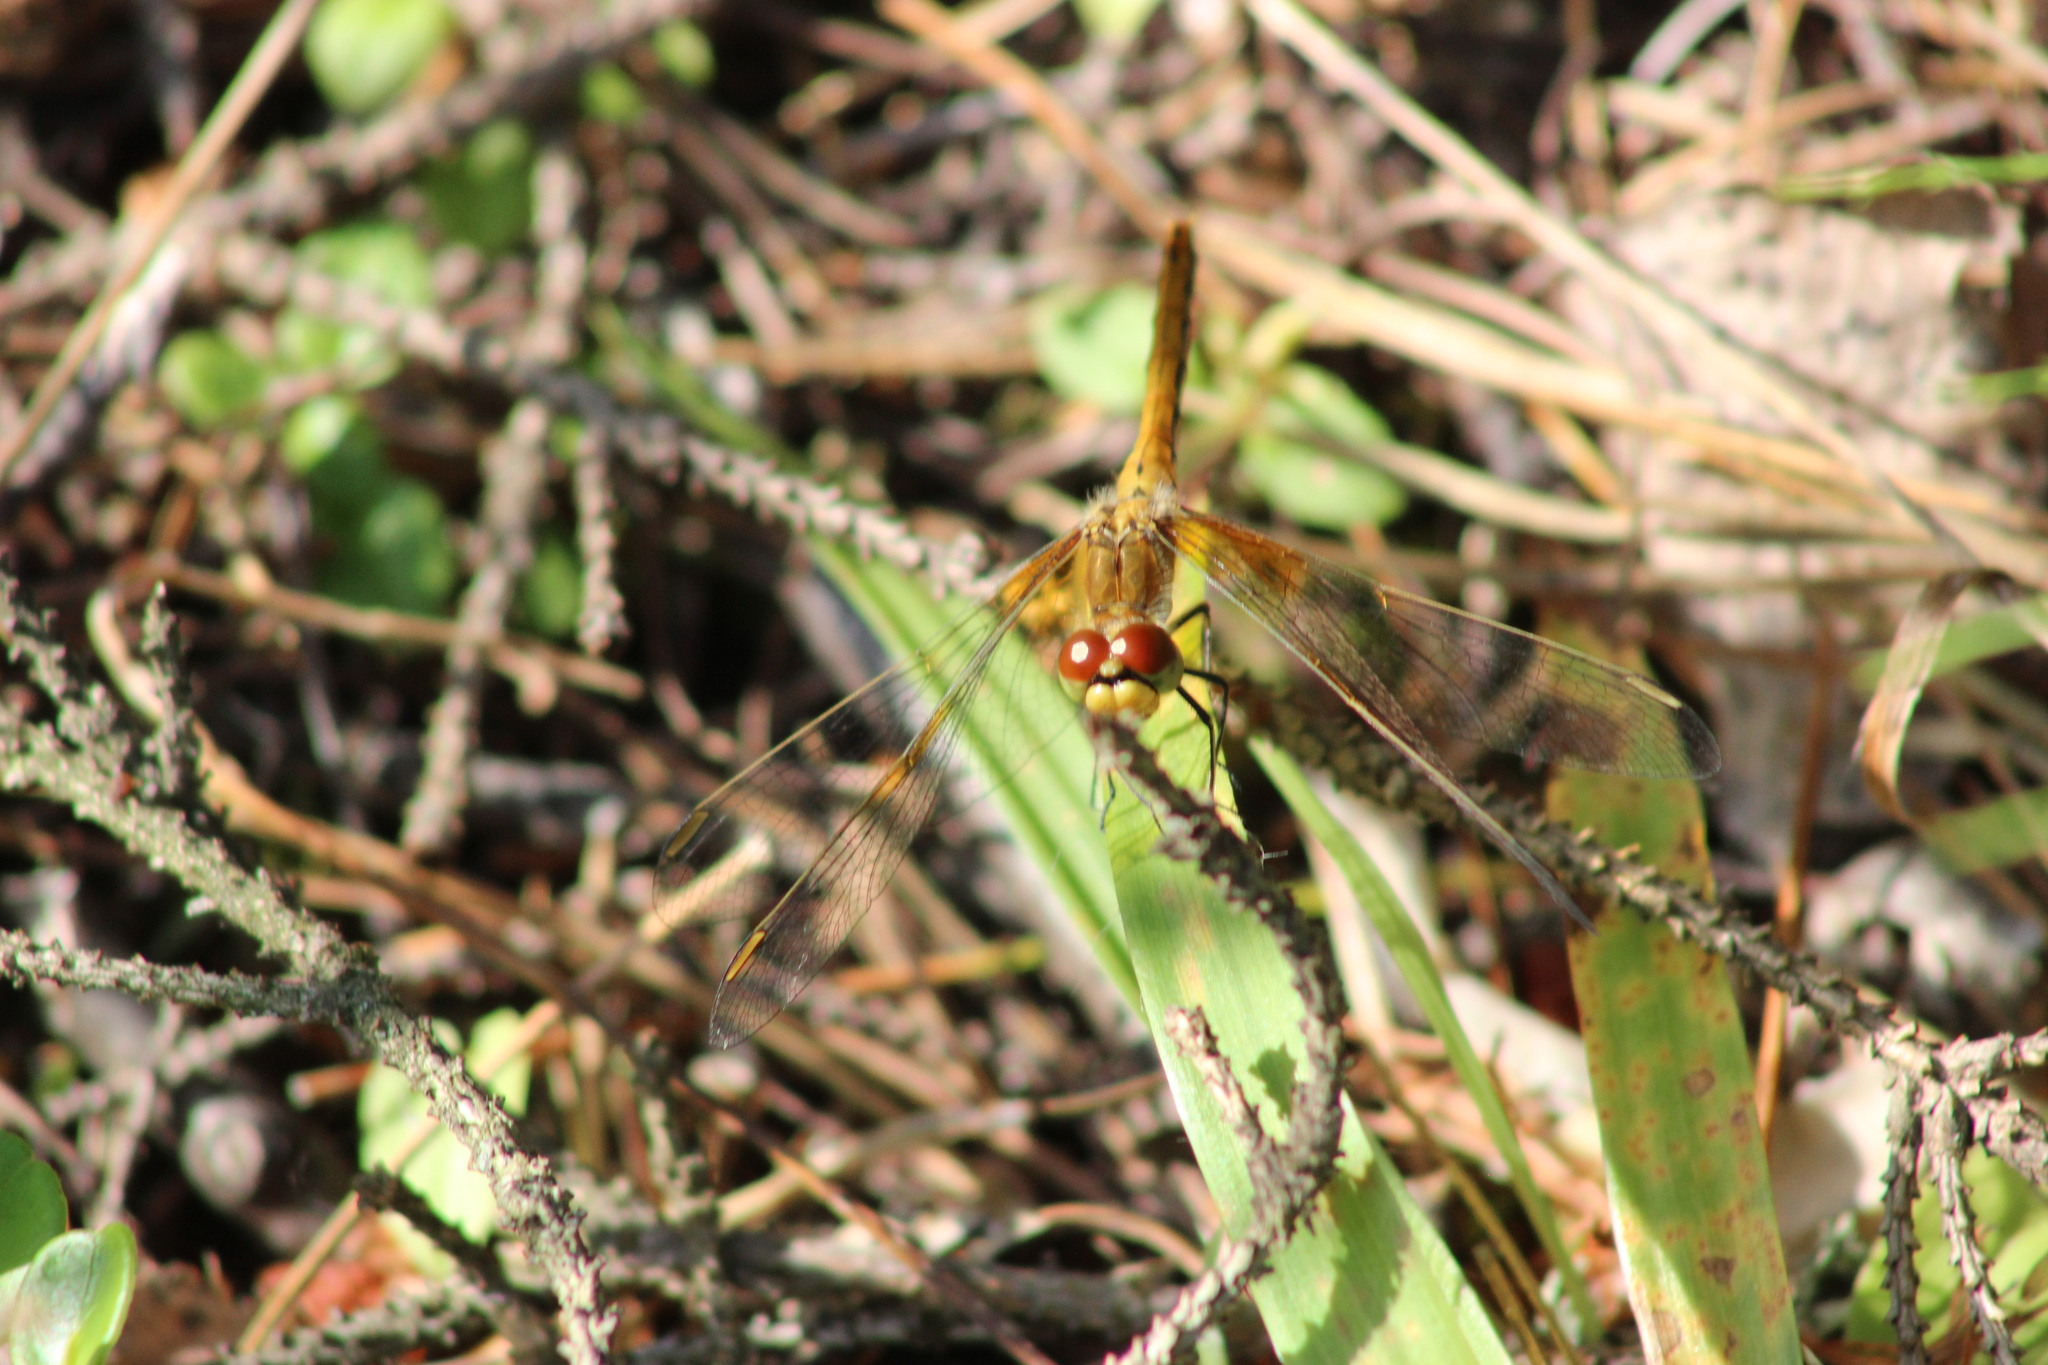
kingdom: Animalia
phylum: Arthropoda
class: Insecta
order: Odonata
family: Libellulidae
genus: Sympetrum
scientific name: Sympetrum flaveolum
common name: Yellow-winged darter
